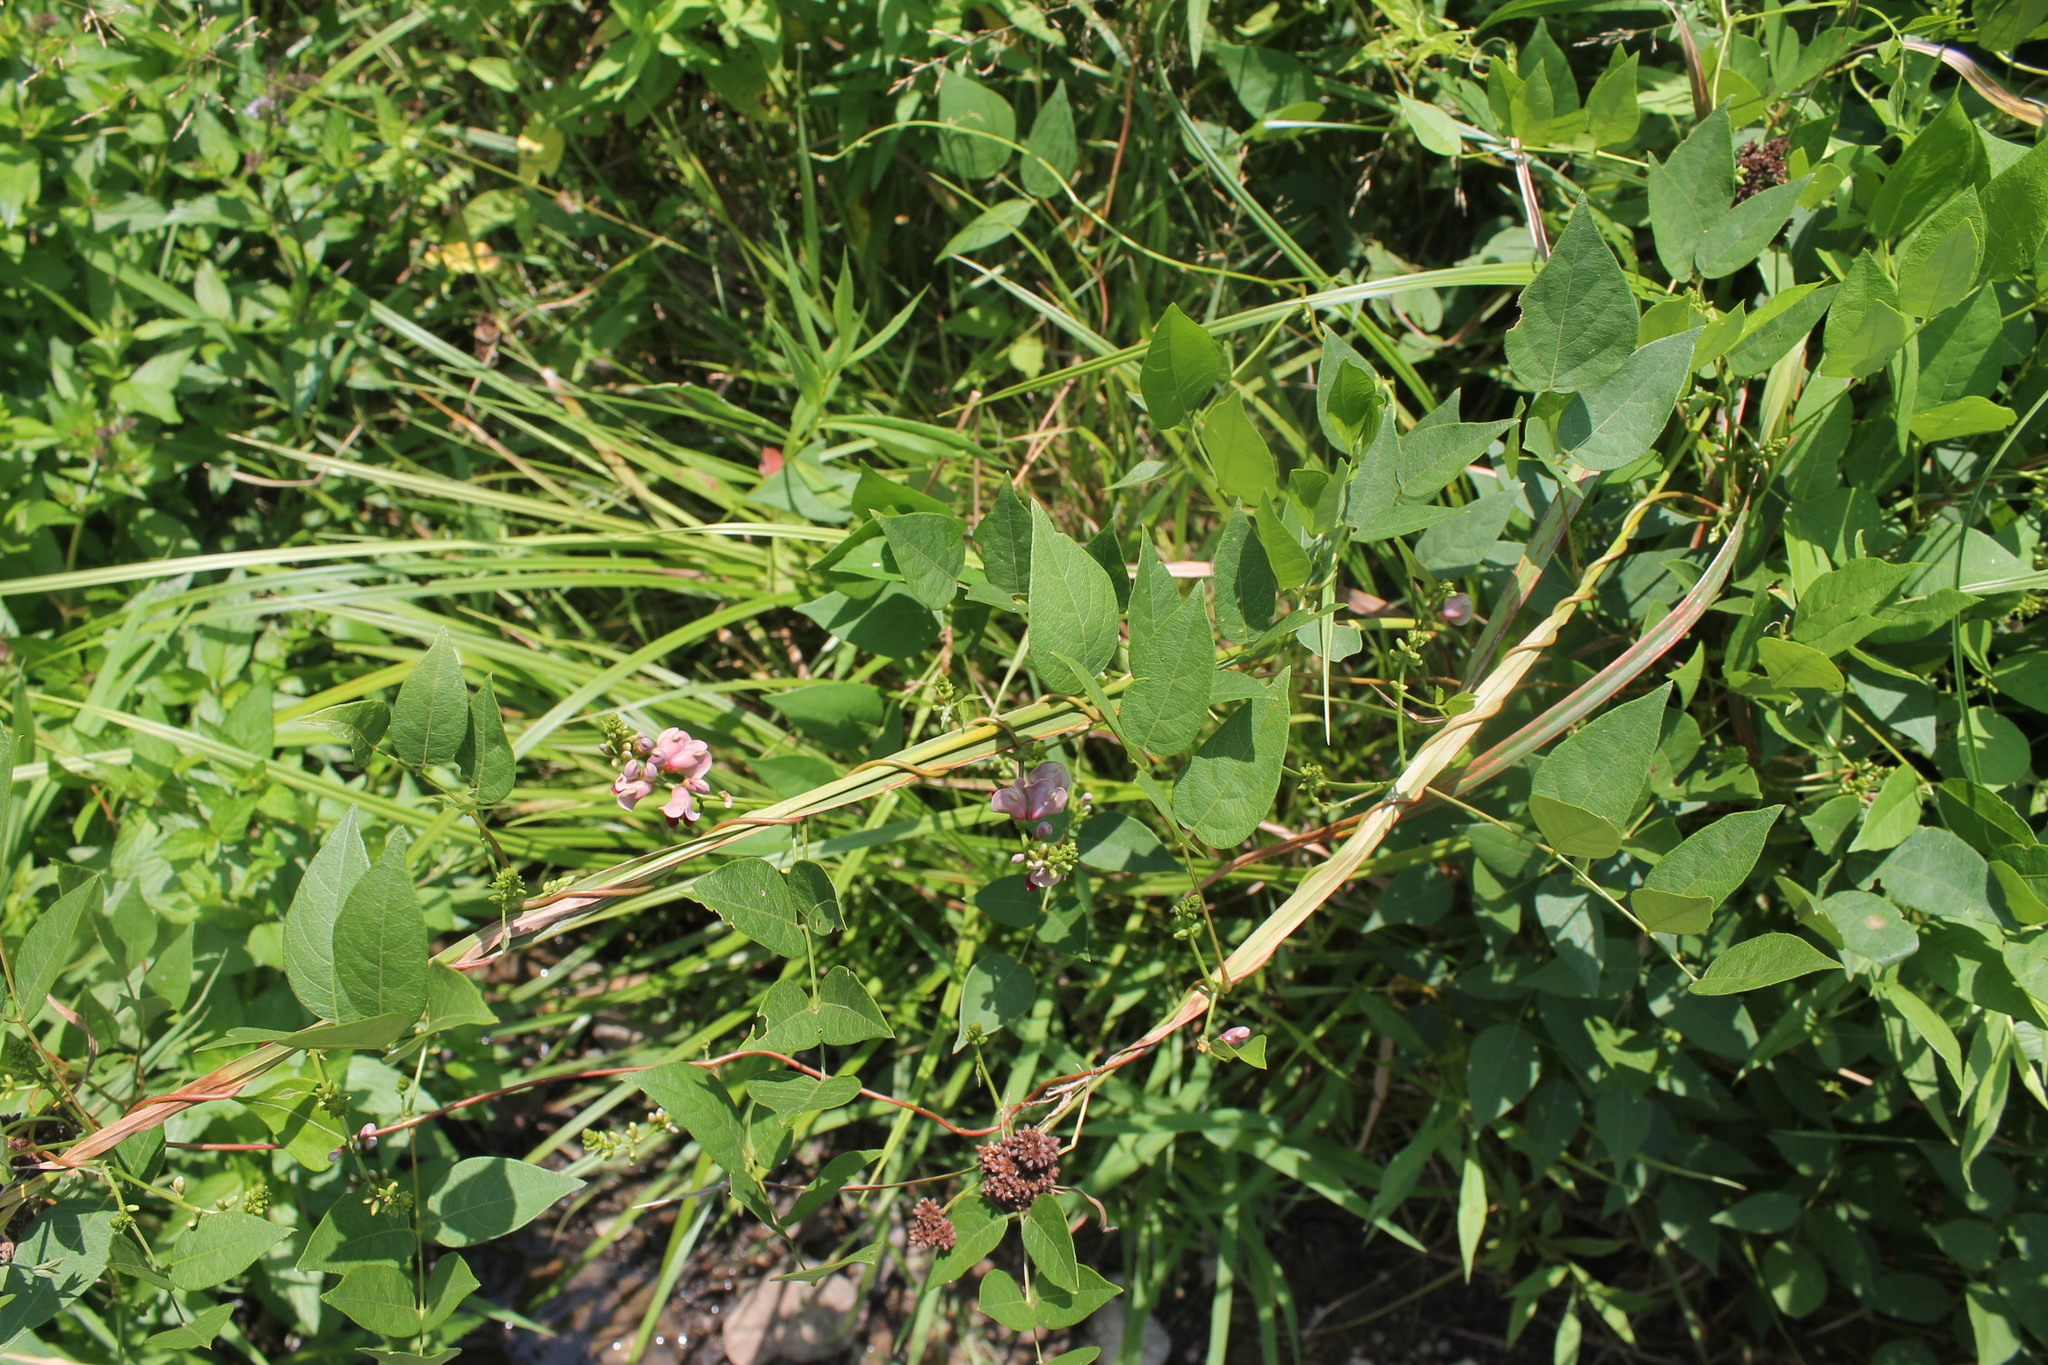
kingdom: Plantae
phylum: Tracheophyta
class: Magnoliopsida
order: Fabales
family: Fabaceae
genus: Apios
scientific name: Apios americana
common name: American potato-bean
